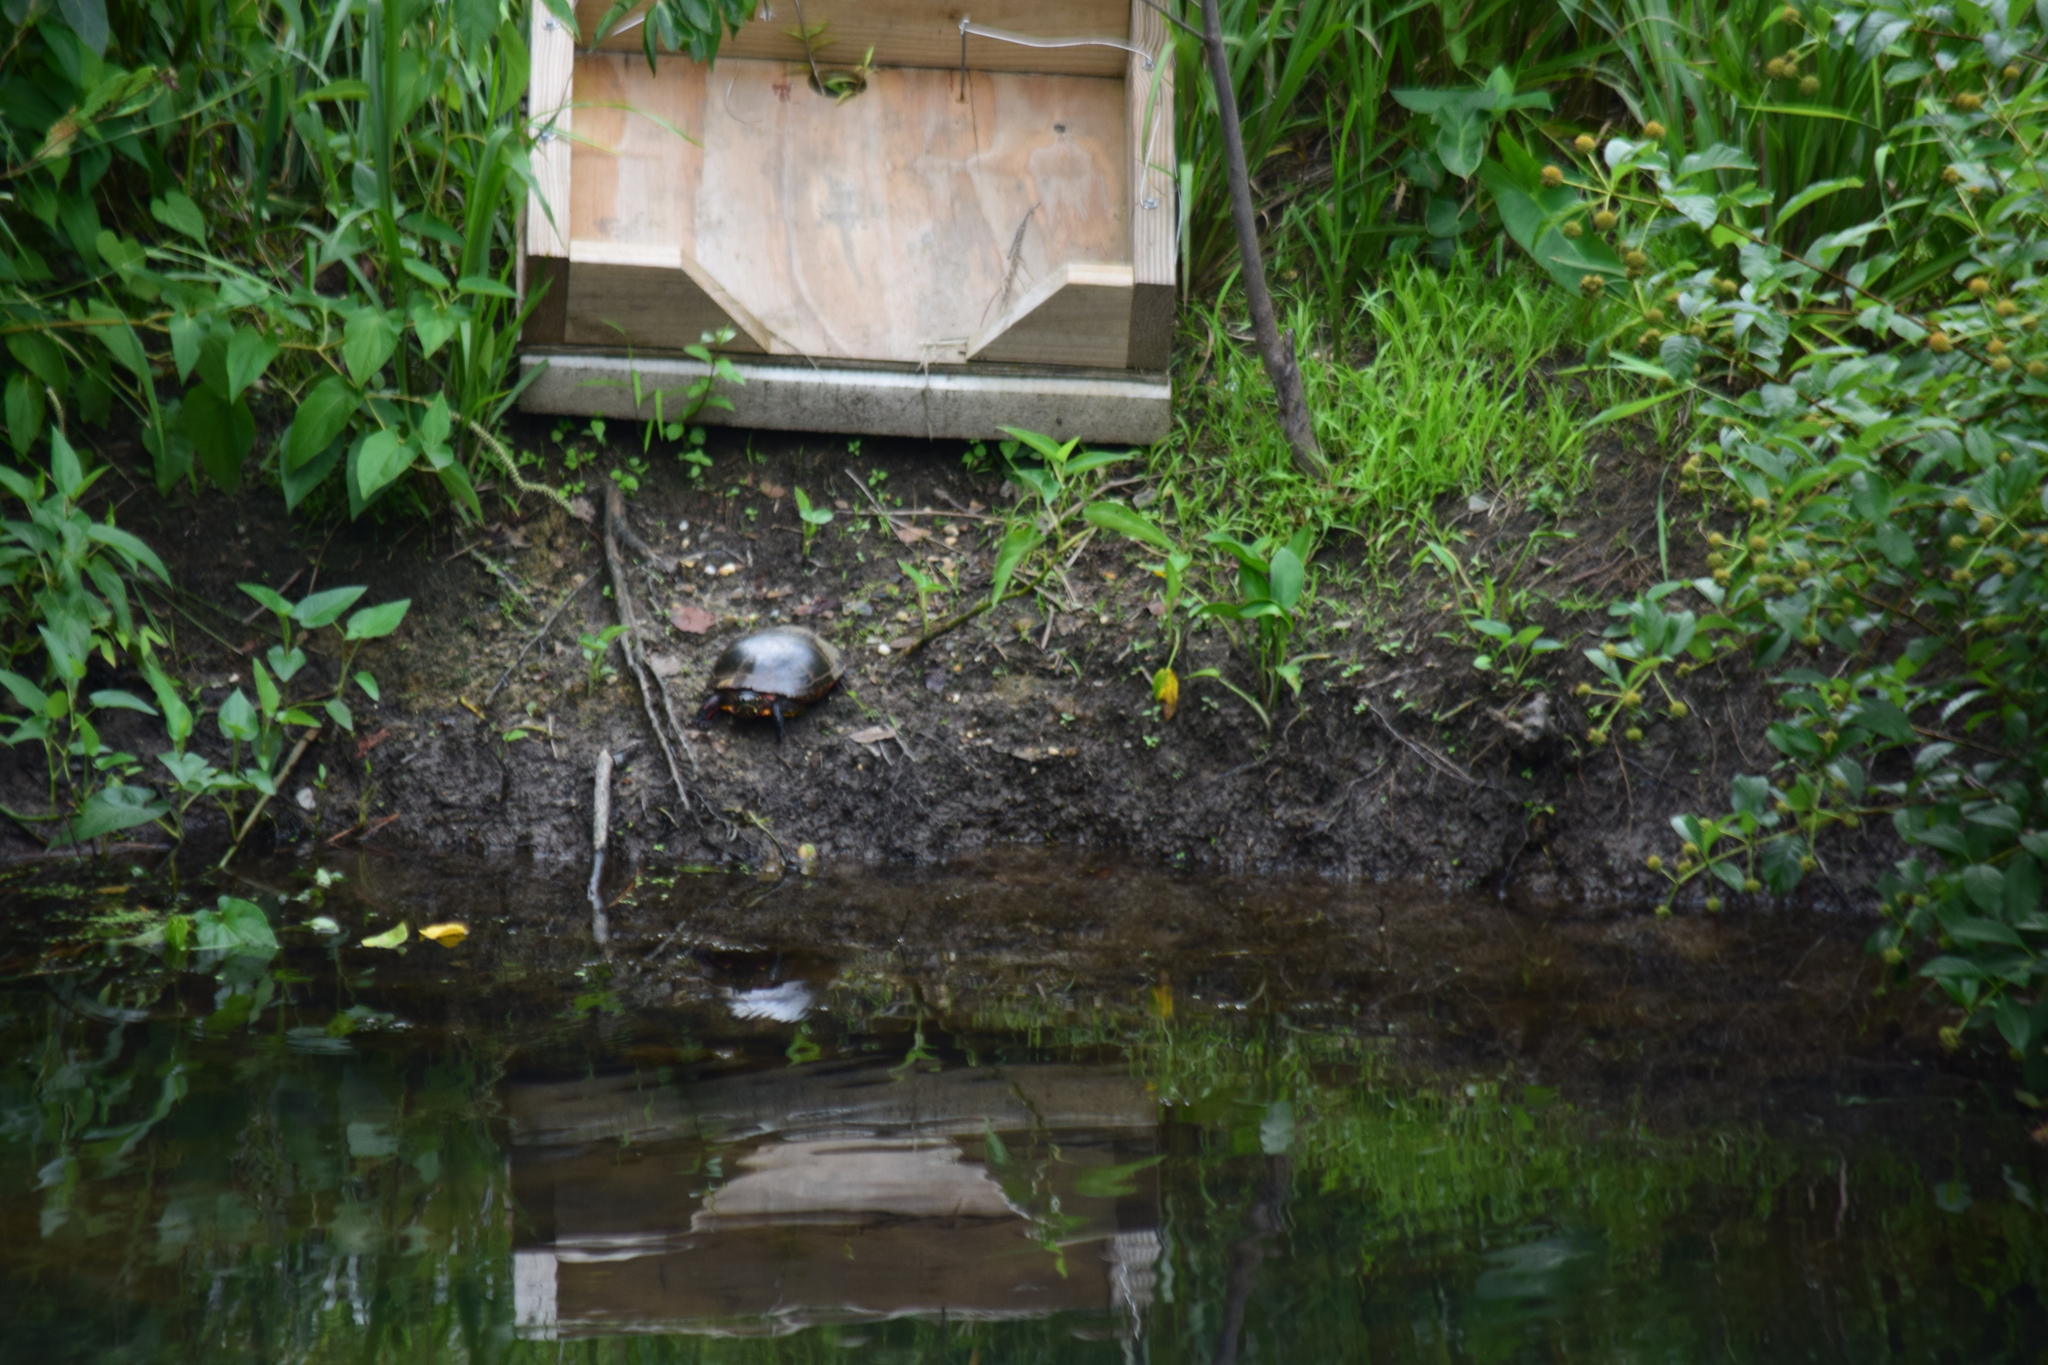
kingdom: Animalia
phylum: Chordata
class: Testudines
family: Emydidae
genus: Chrysemys
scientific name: Chrysemys picta
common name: Painted turtle
